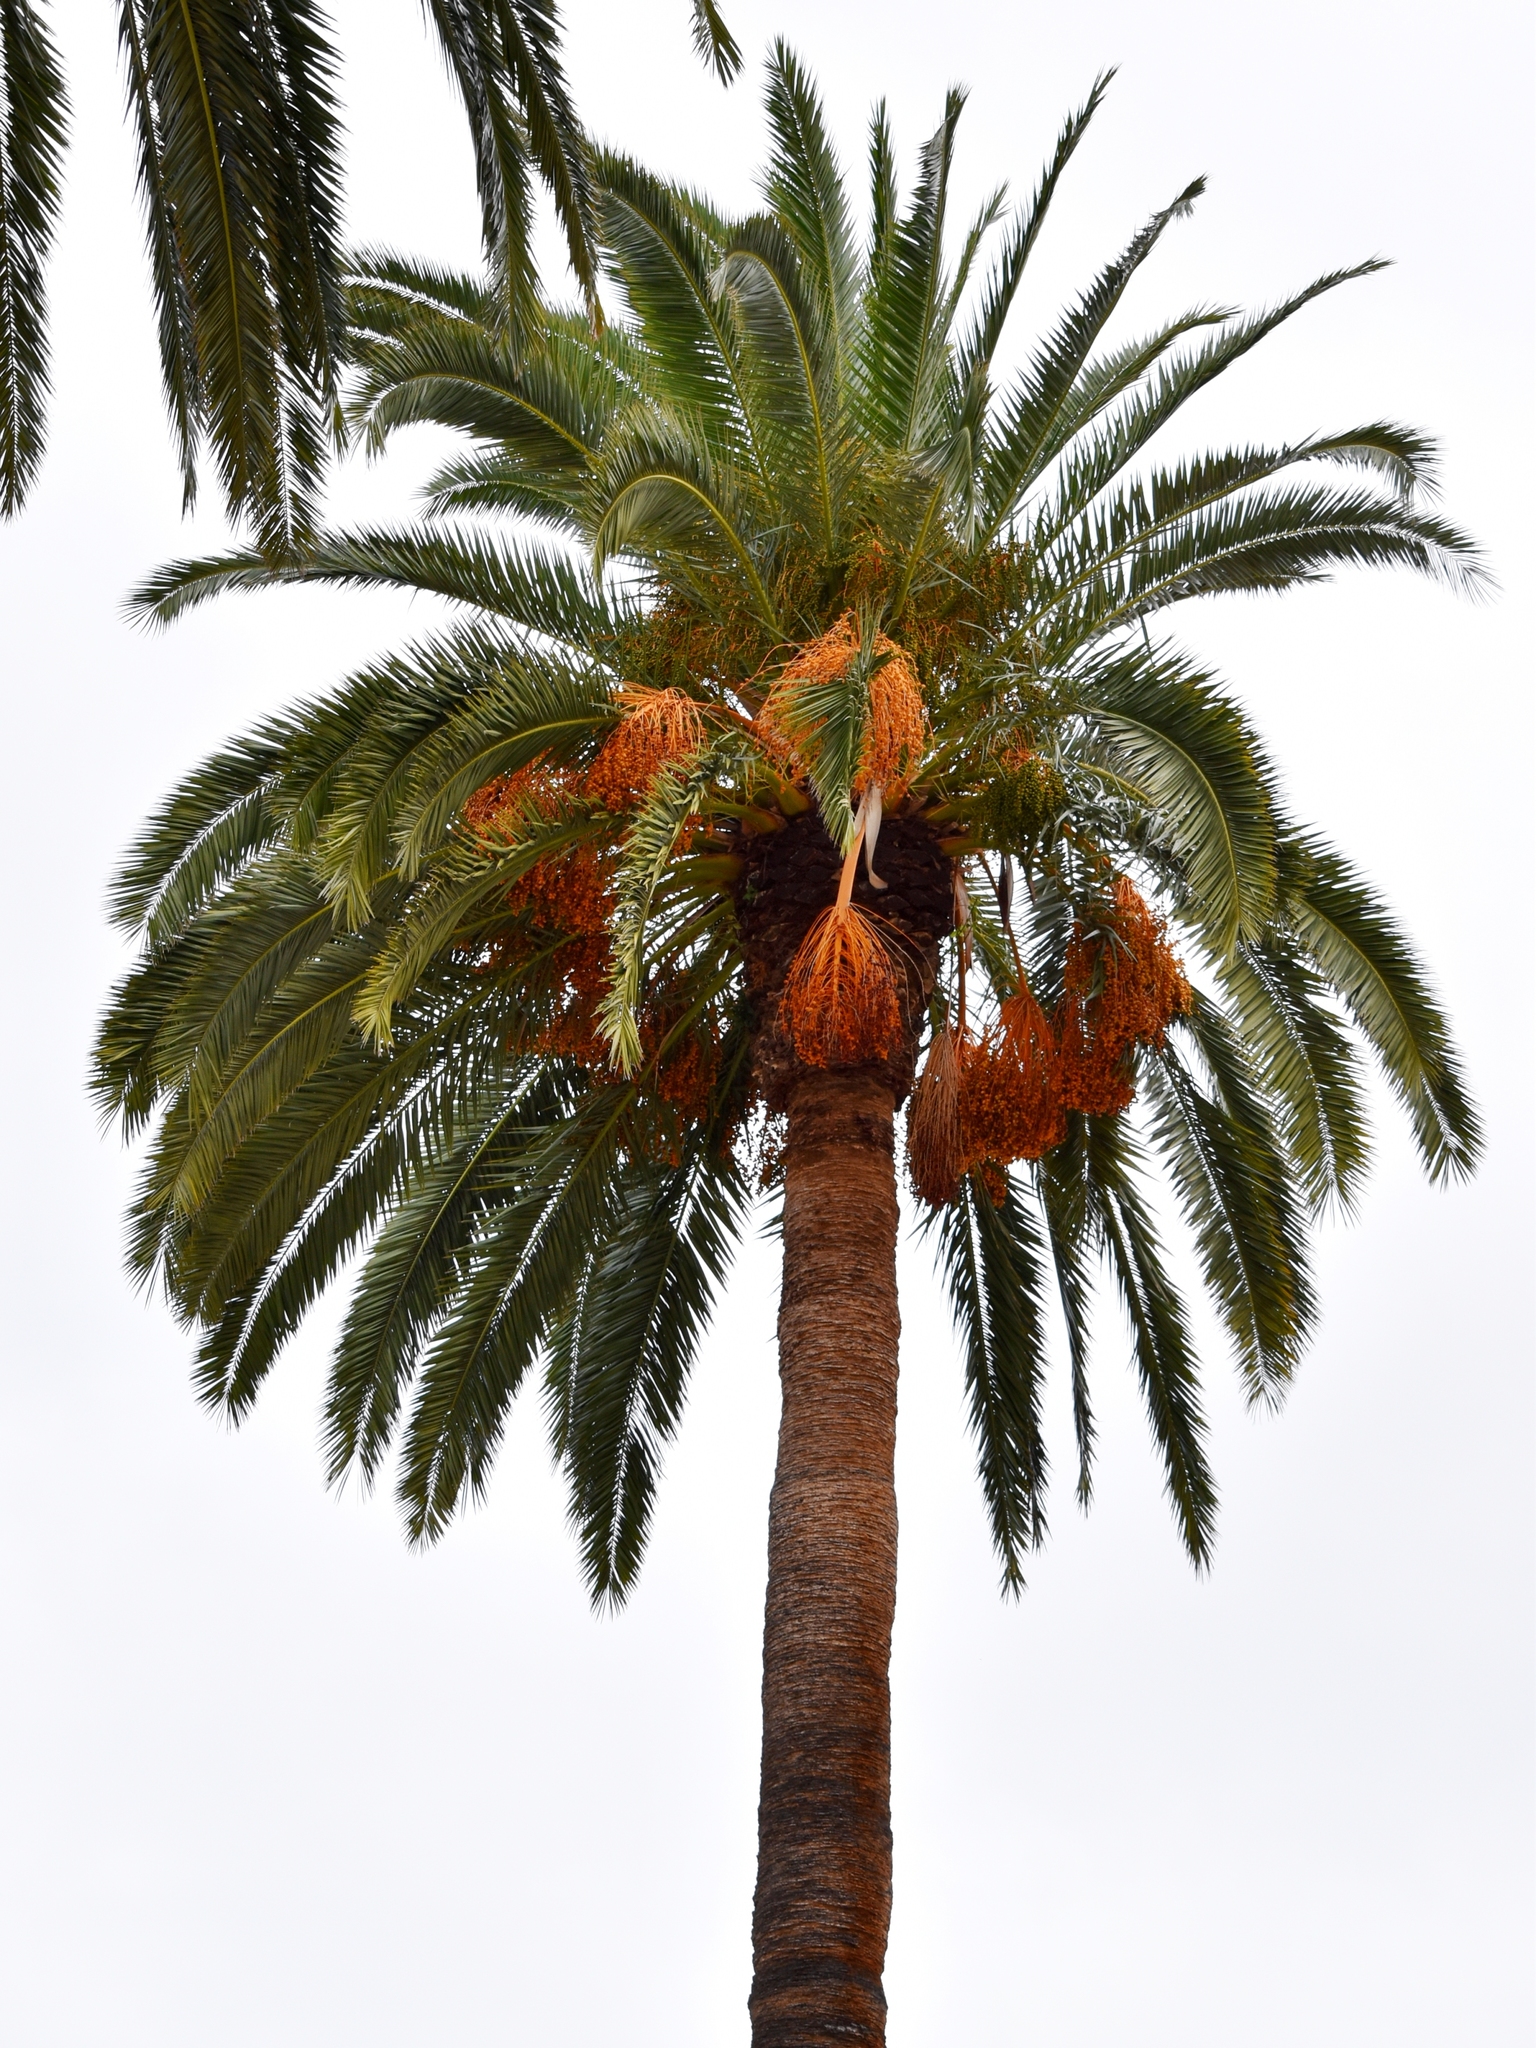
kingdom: Plantae
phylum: Tracheophyta
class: Liliopsida
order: Arecales
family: Arecaceae
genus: Phoenix
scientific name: Phoenix canariensis
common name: Canary island date palm
